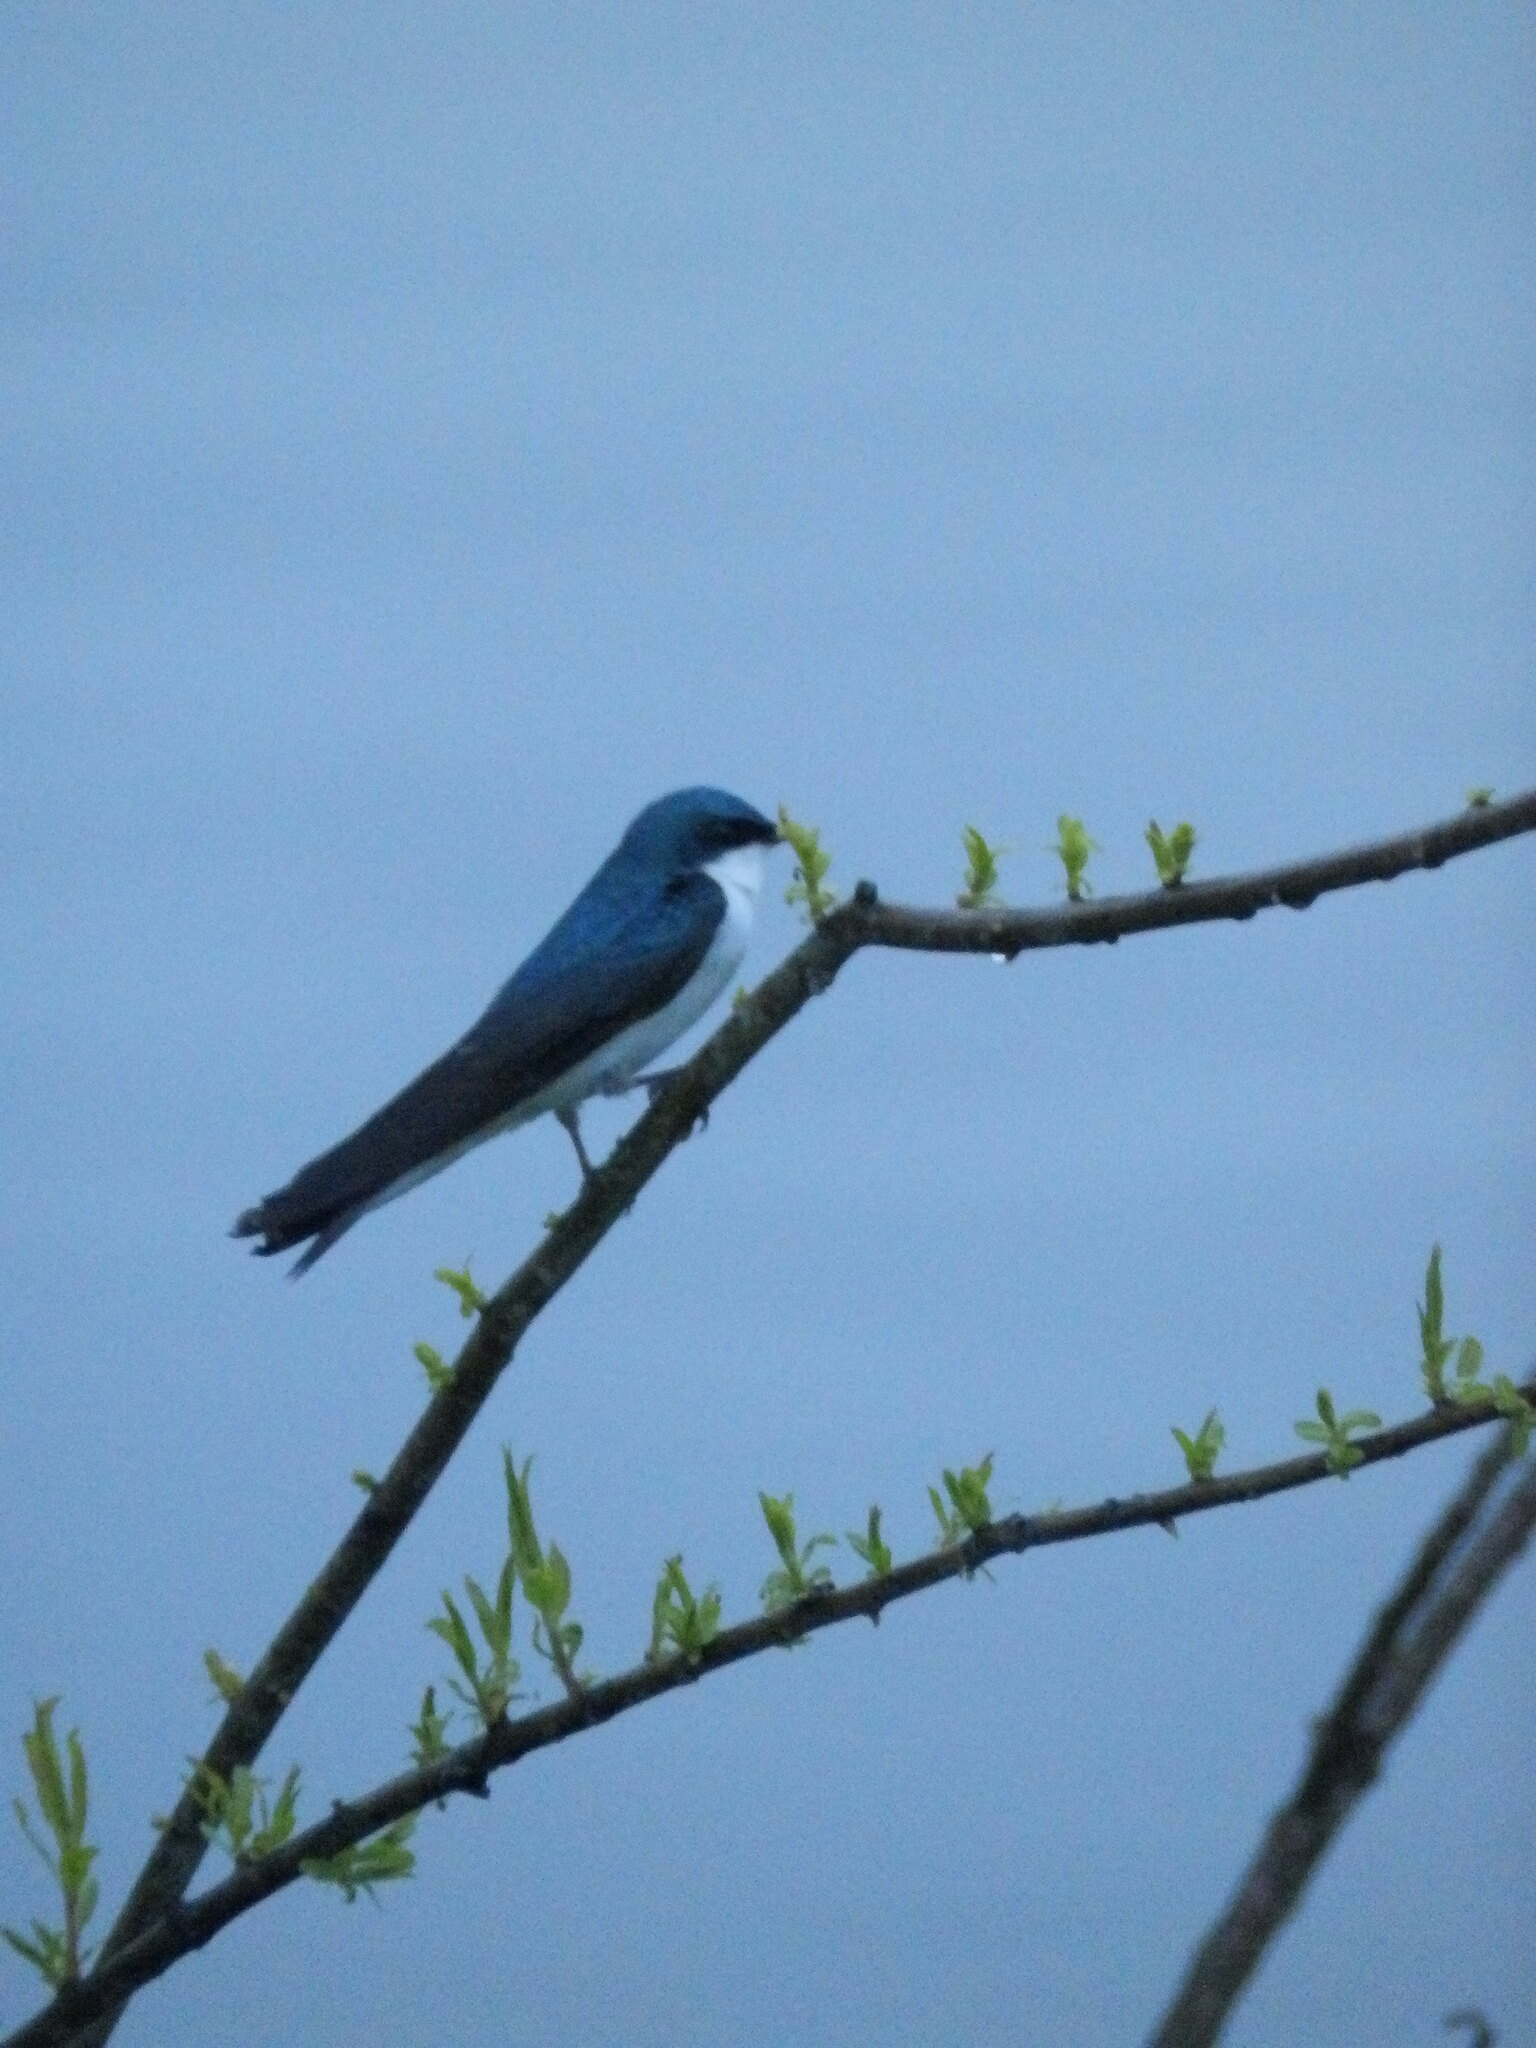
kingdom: Animalia
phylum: Chordata
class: Aves
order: Passeriformes
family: Hirundinidae
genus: Tachycineta
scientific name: Tachycineta bicolor
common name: Tree swallow
